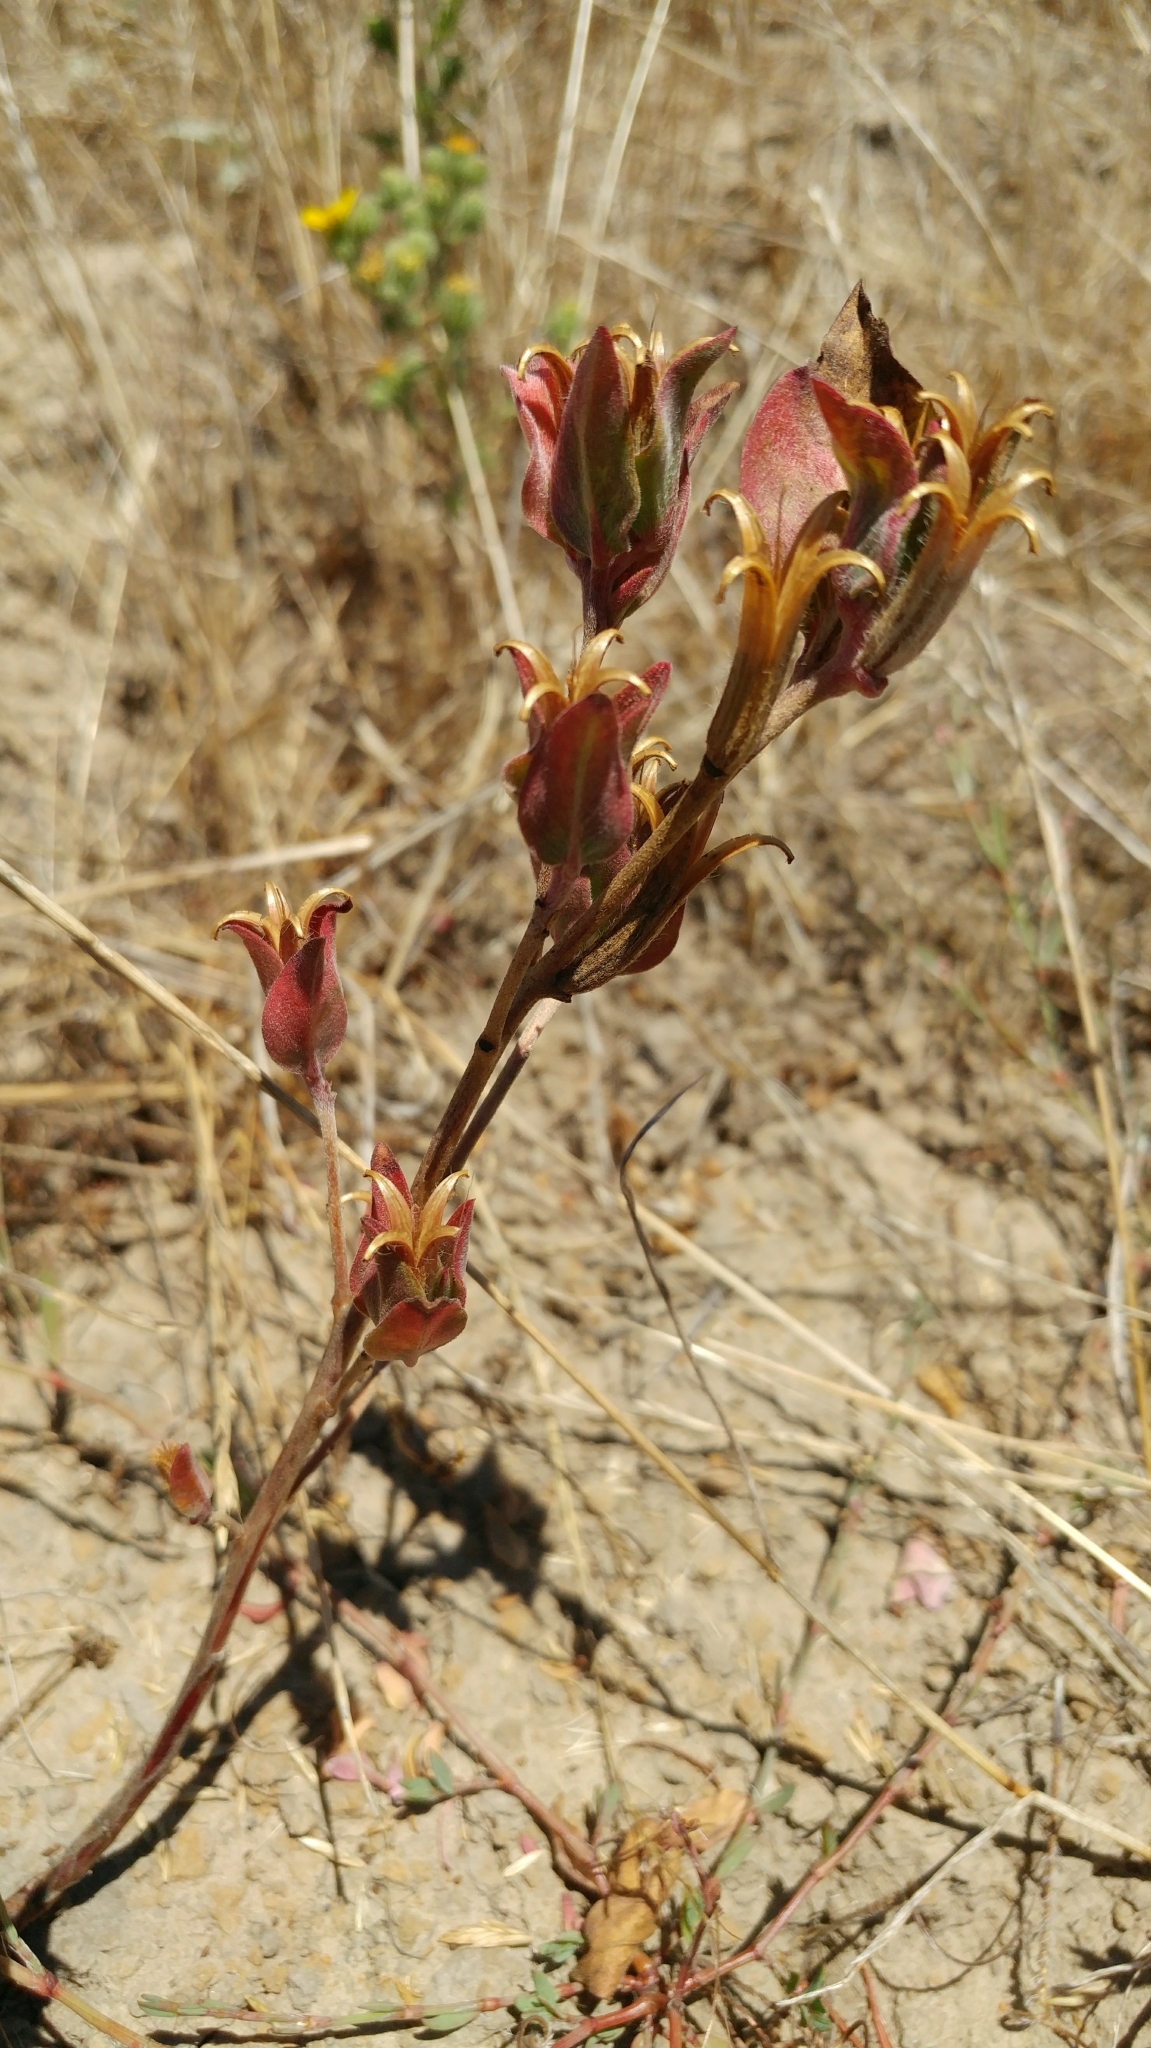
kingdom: Plantae
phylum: Tracheophyta
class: Magnoliopsida
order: Myrtales
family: Onagraceae
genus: Clarkia
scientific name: Clarkia purpurea
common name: Purple clarkia
